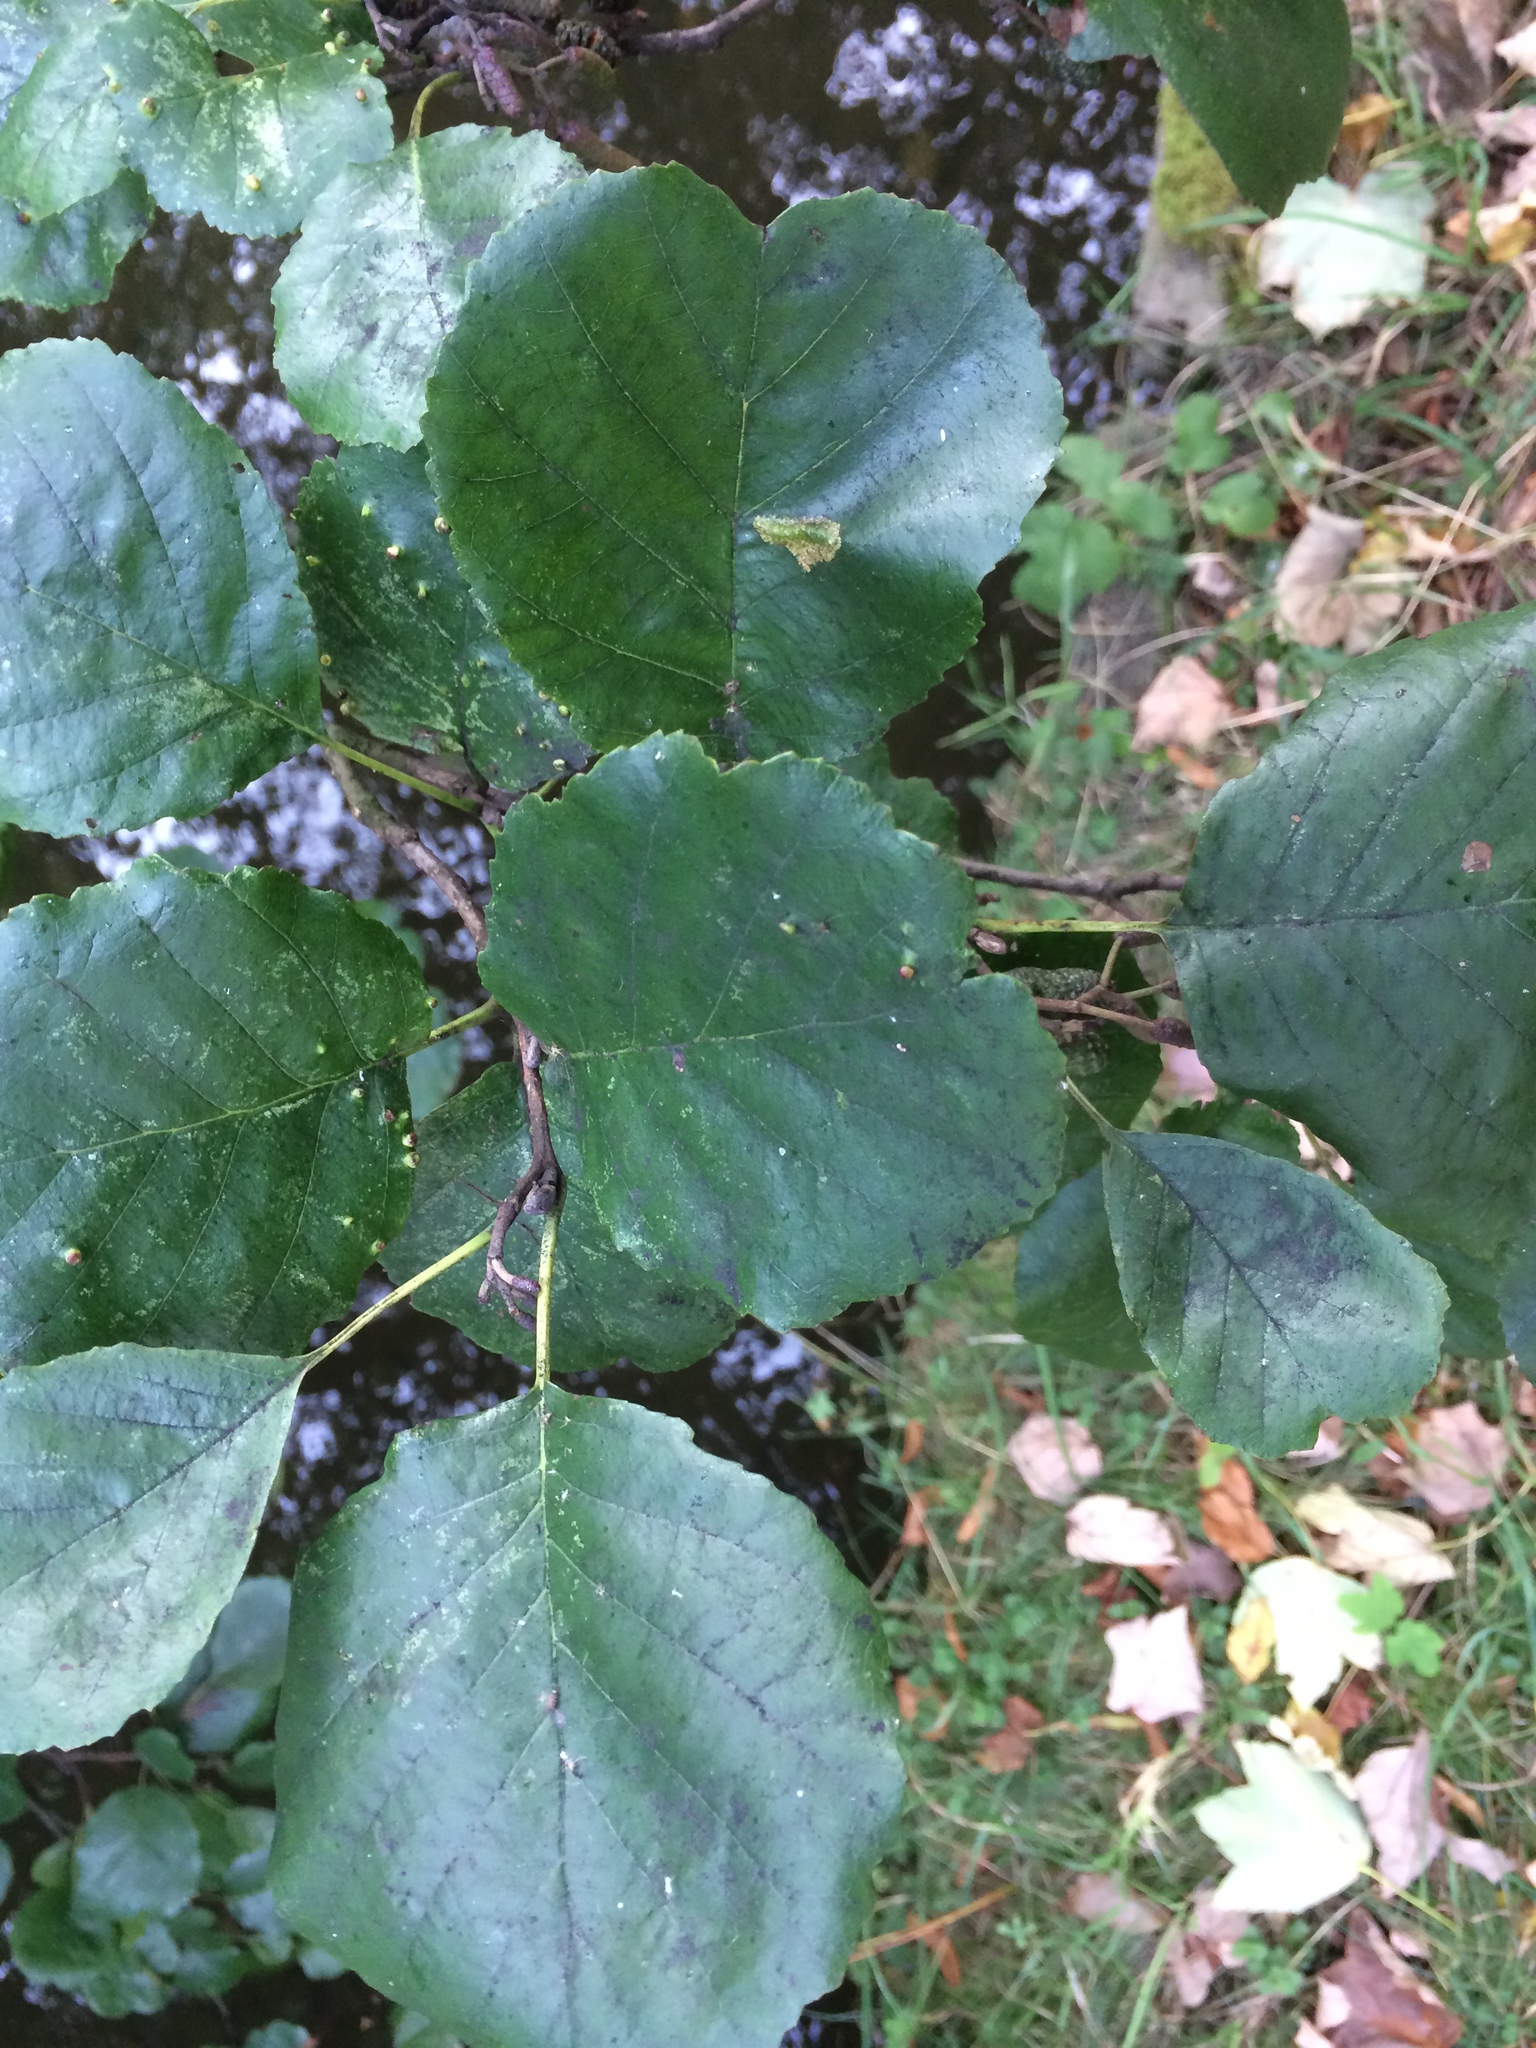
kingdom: Plantae
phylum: Tracheophyta
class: Magnoliopsida
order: Fagales
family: Betulaceae
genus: Alnus
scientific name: Alnus glutinosa
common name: Black alder
